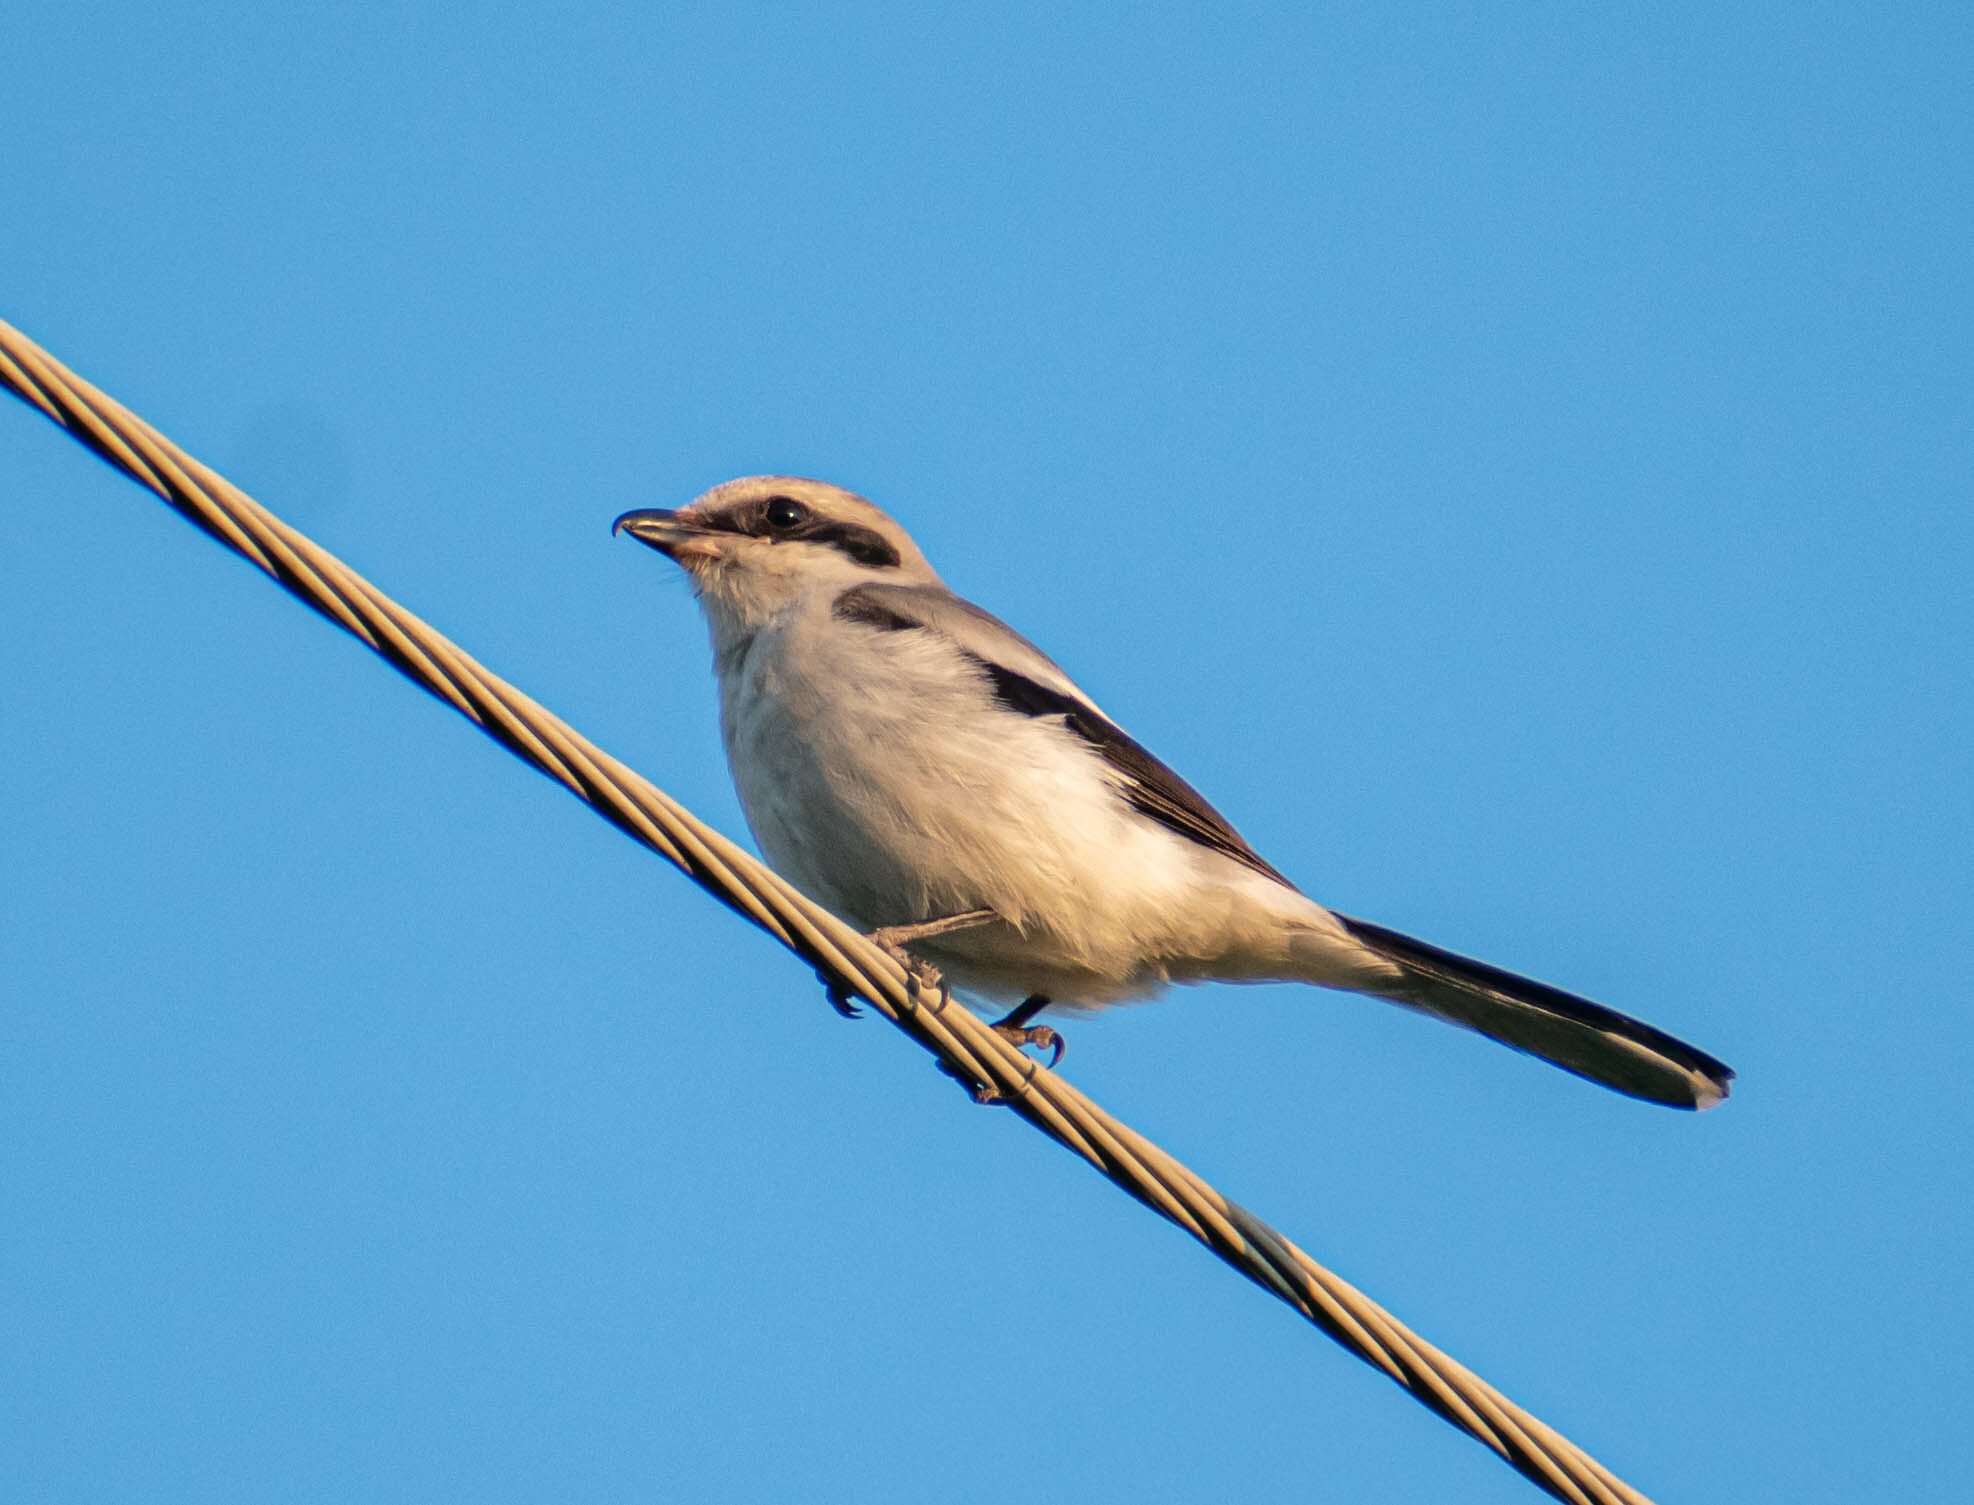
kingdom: Animalia
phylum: Chordata
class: Aves
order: Passeriformes
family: Laniidae
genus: Lanius
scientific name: Lanius excubitor
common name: Great grey shrike
